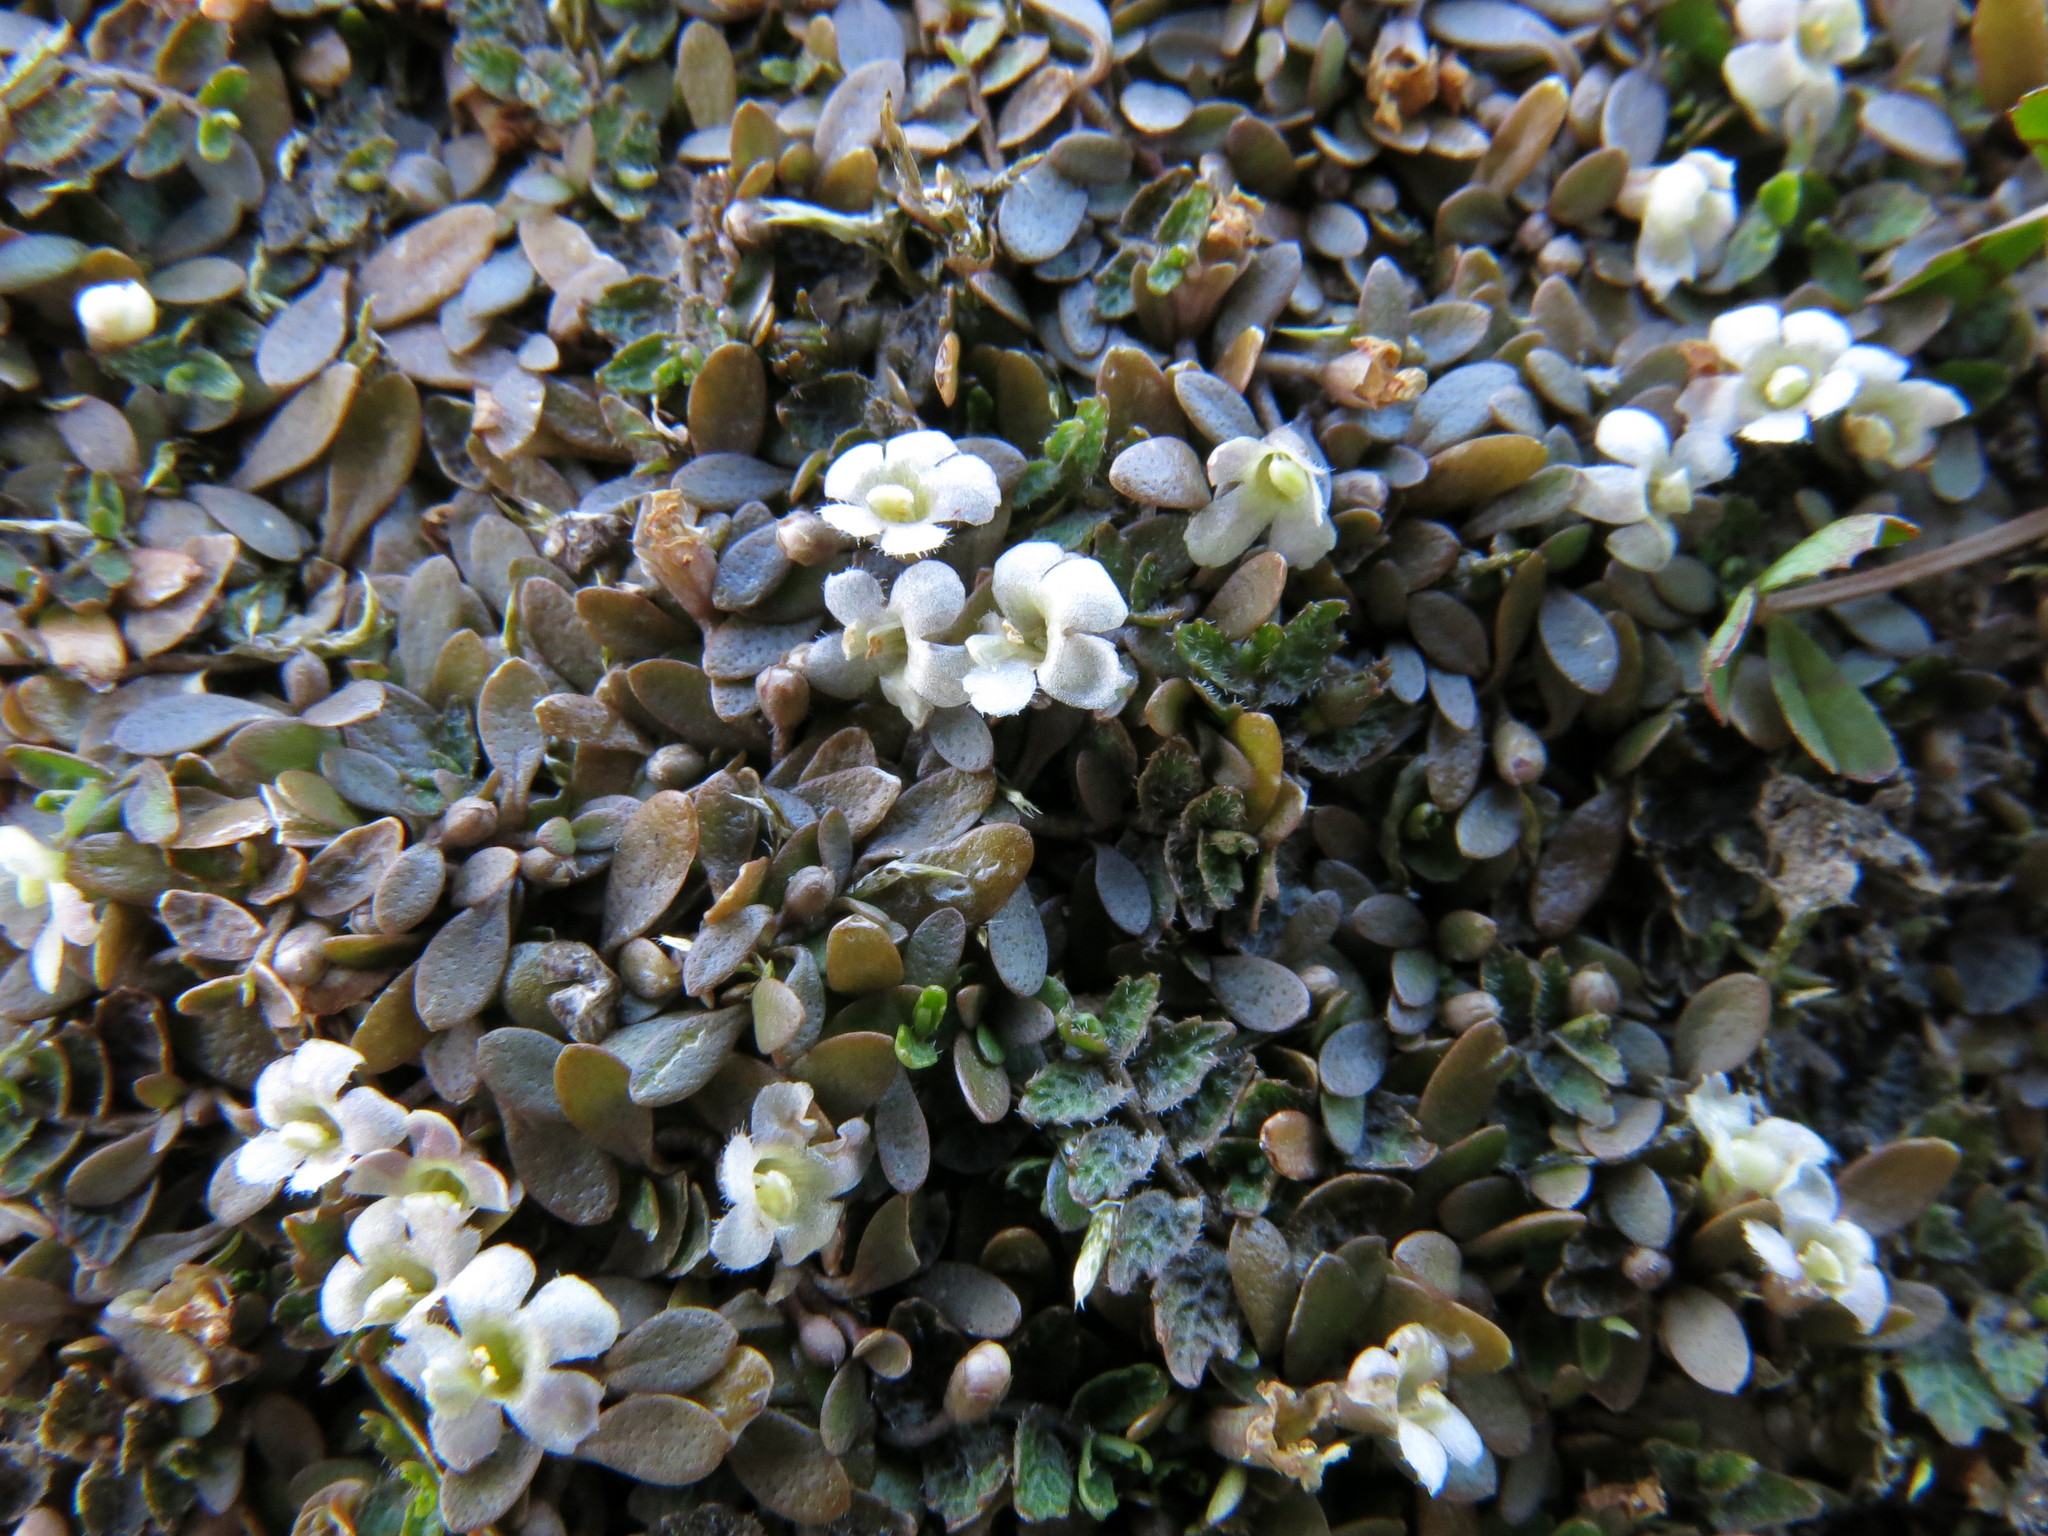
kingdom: Plantae
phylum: Tracheophyta
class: Magnoliopsida
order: Lamiales
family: Phrymaceae
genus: Glossostigma
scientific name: Glossostigma elatinoides
